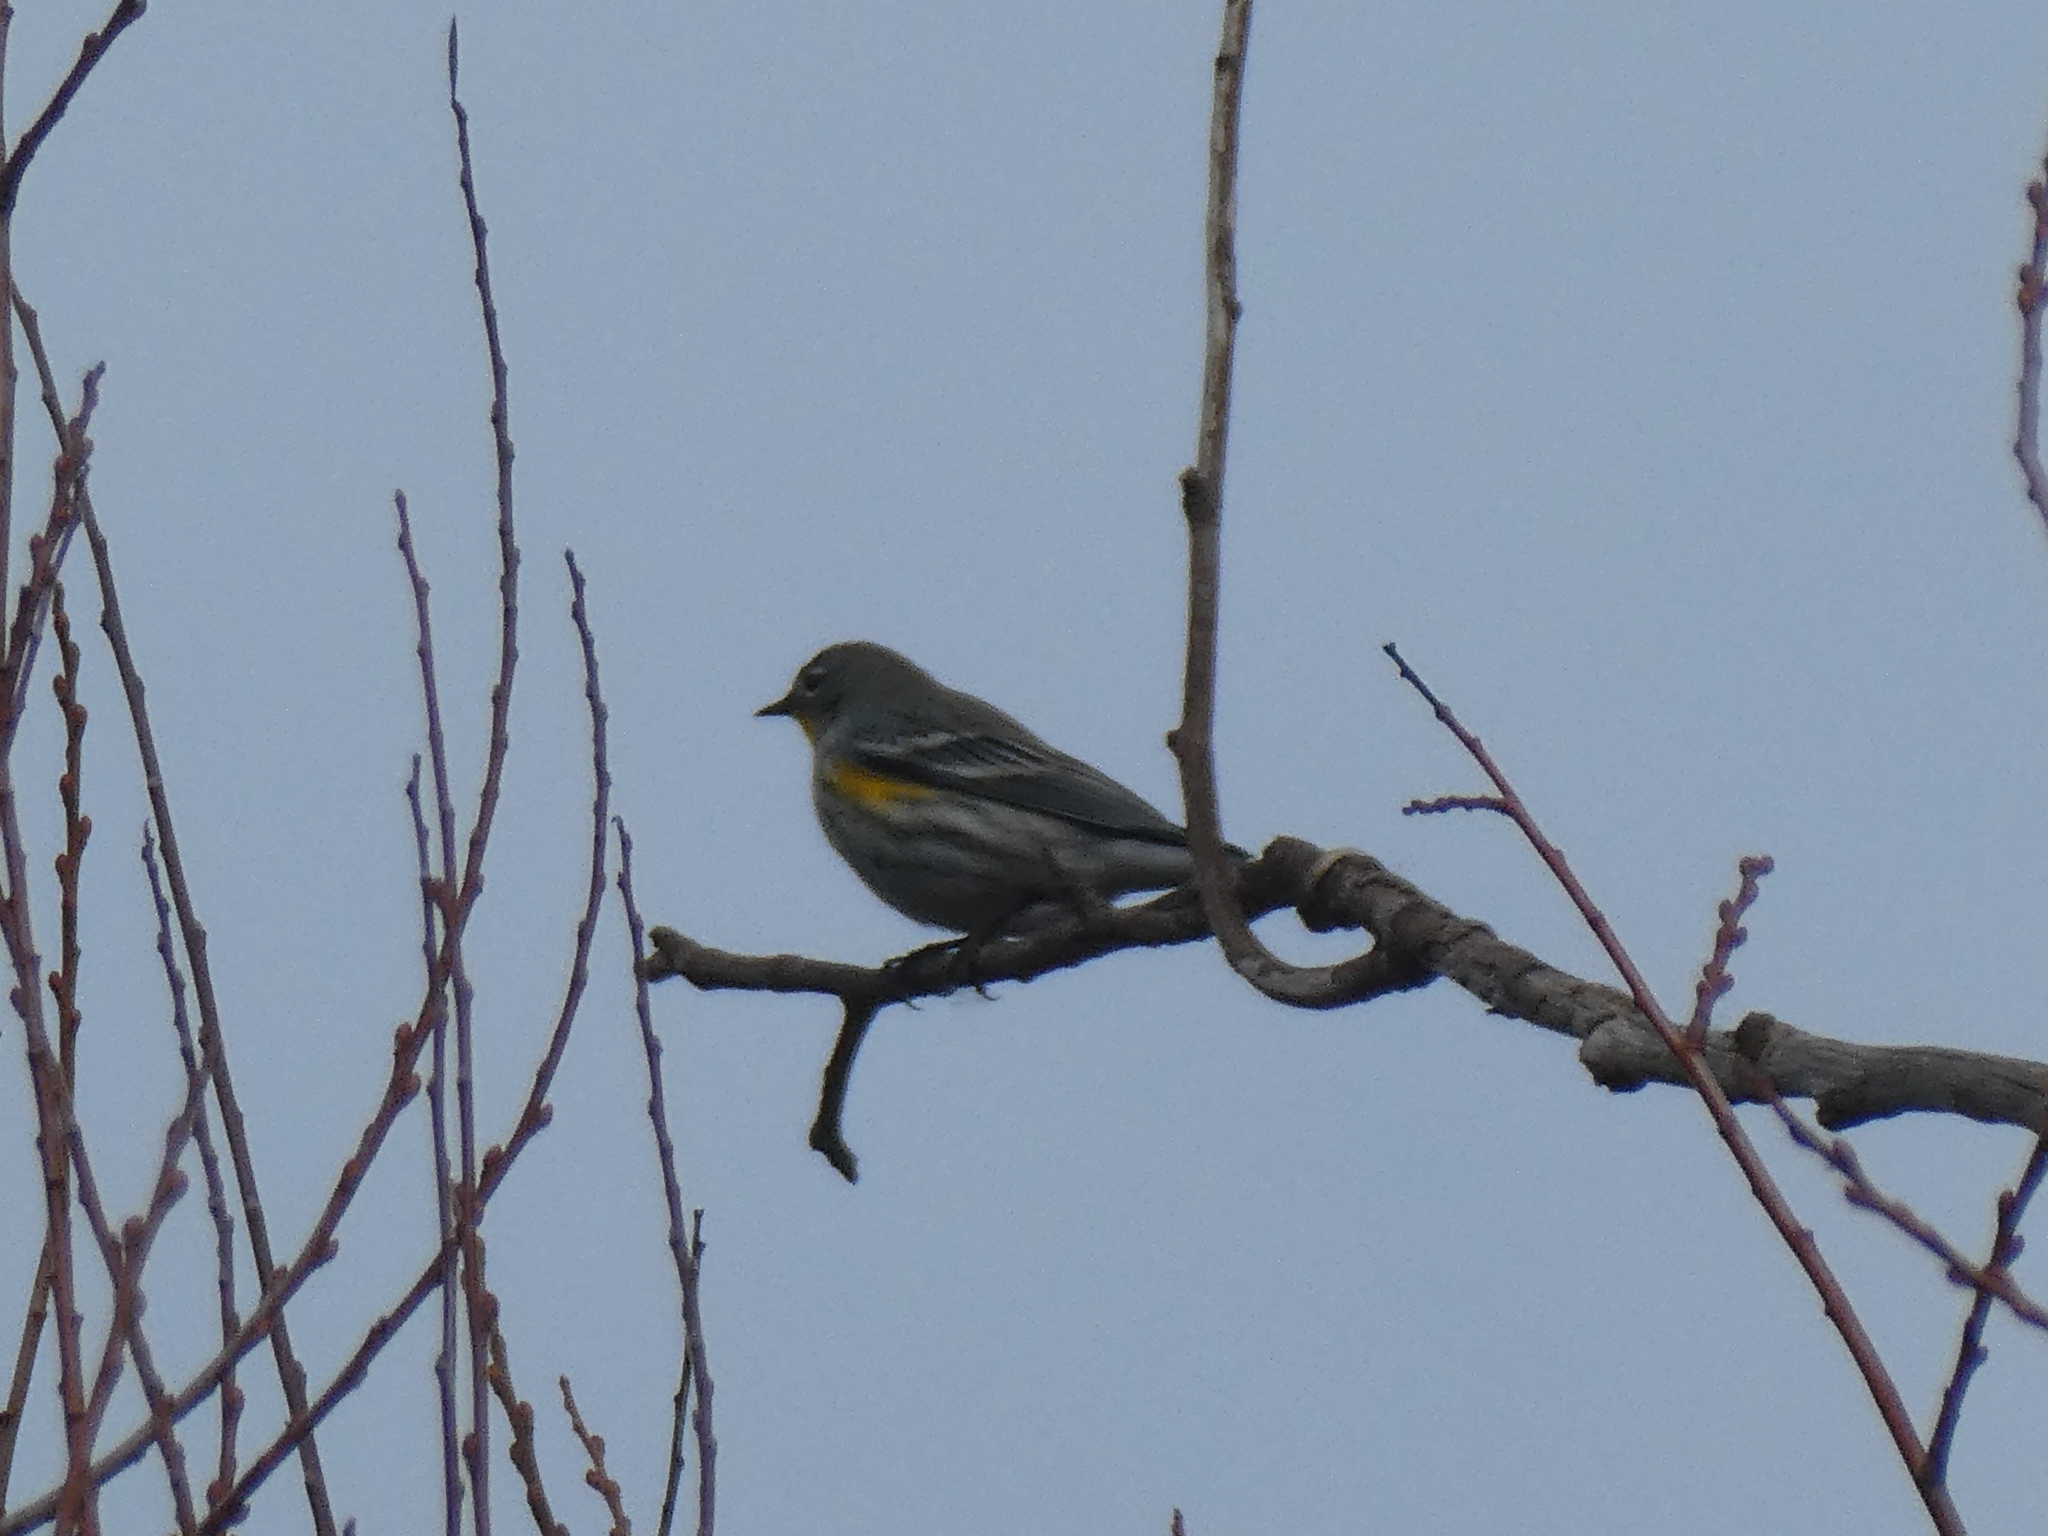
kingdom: Animalia
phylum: Chordata
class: Aves
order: Passeriformes
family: Parulidae
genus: Setophaga
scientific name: Setophaga coronata
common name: Myrtle warbler
